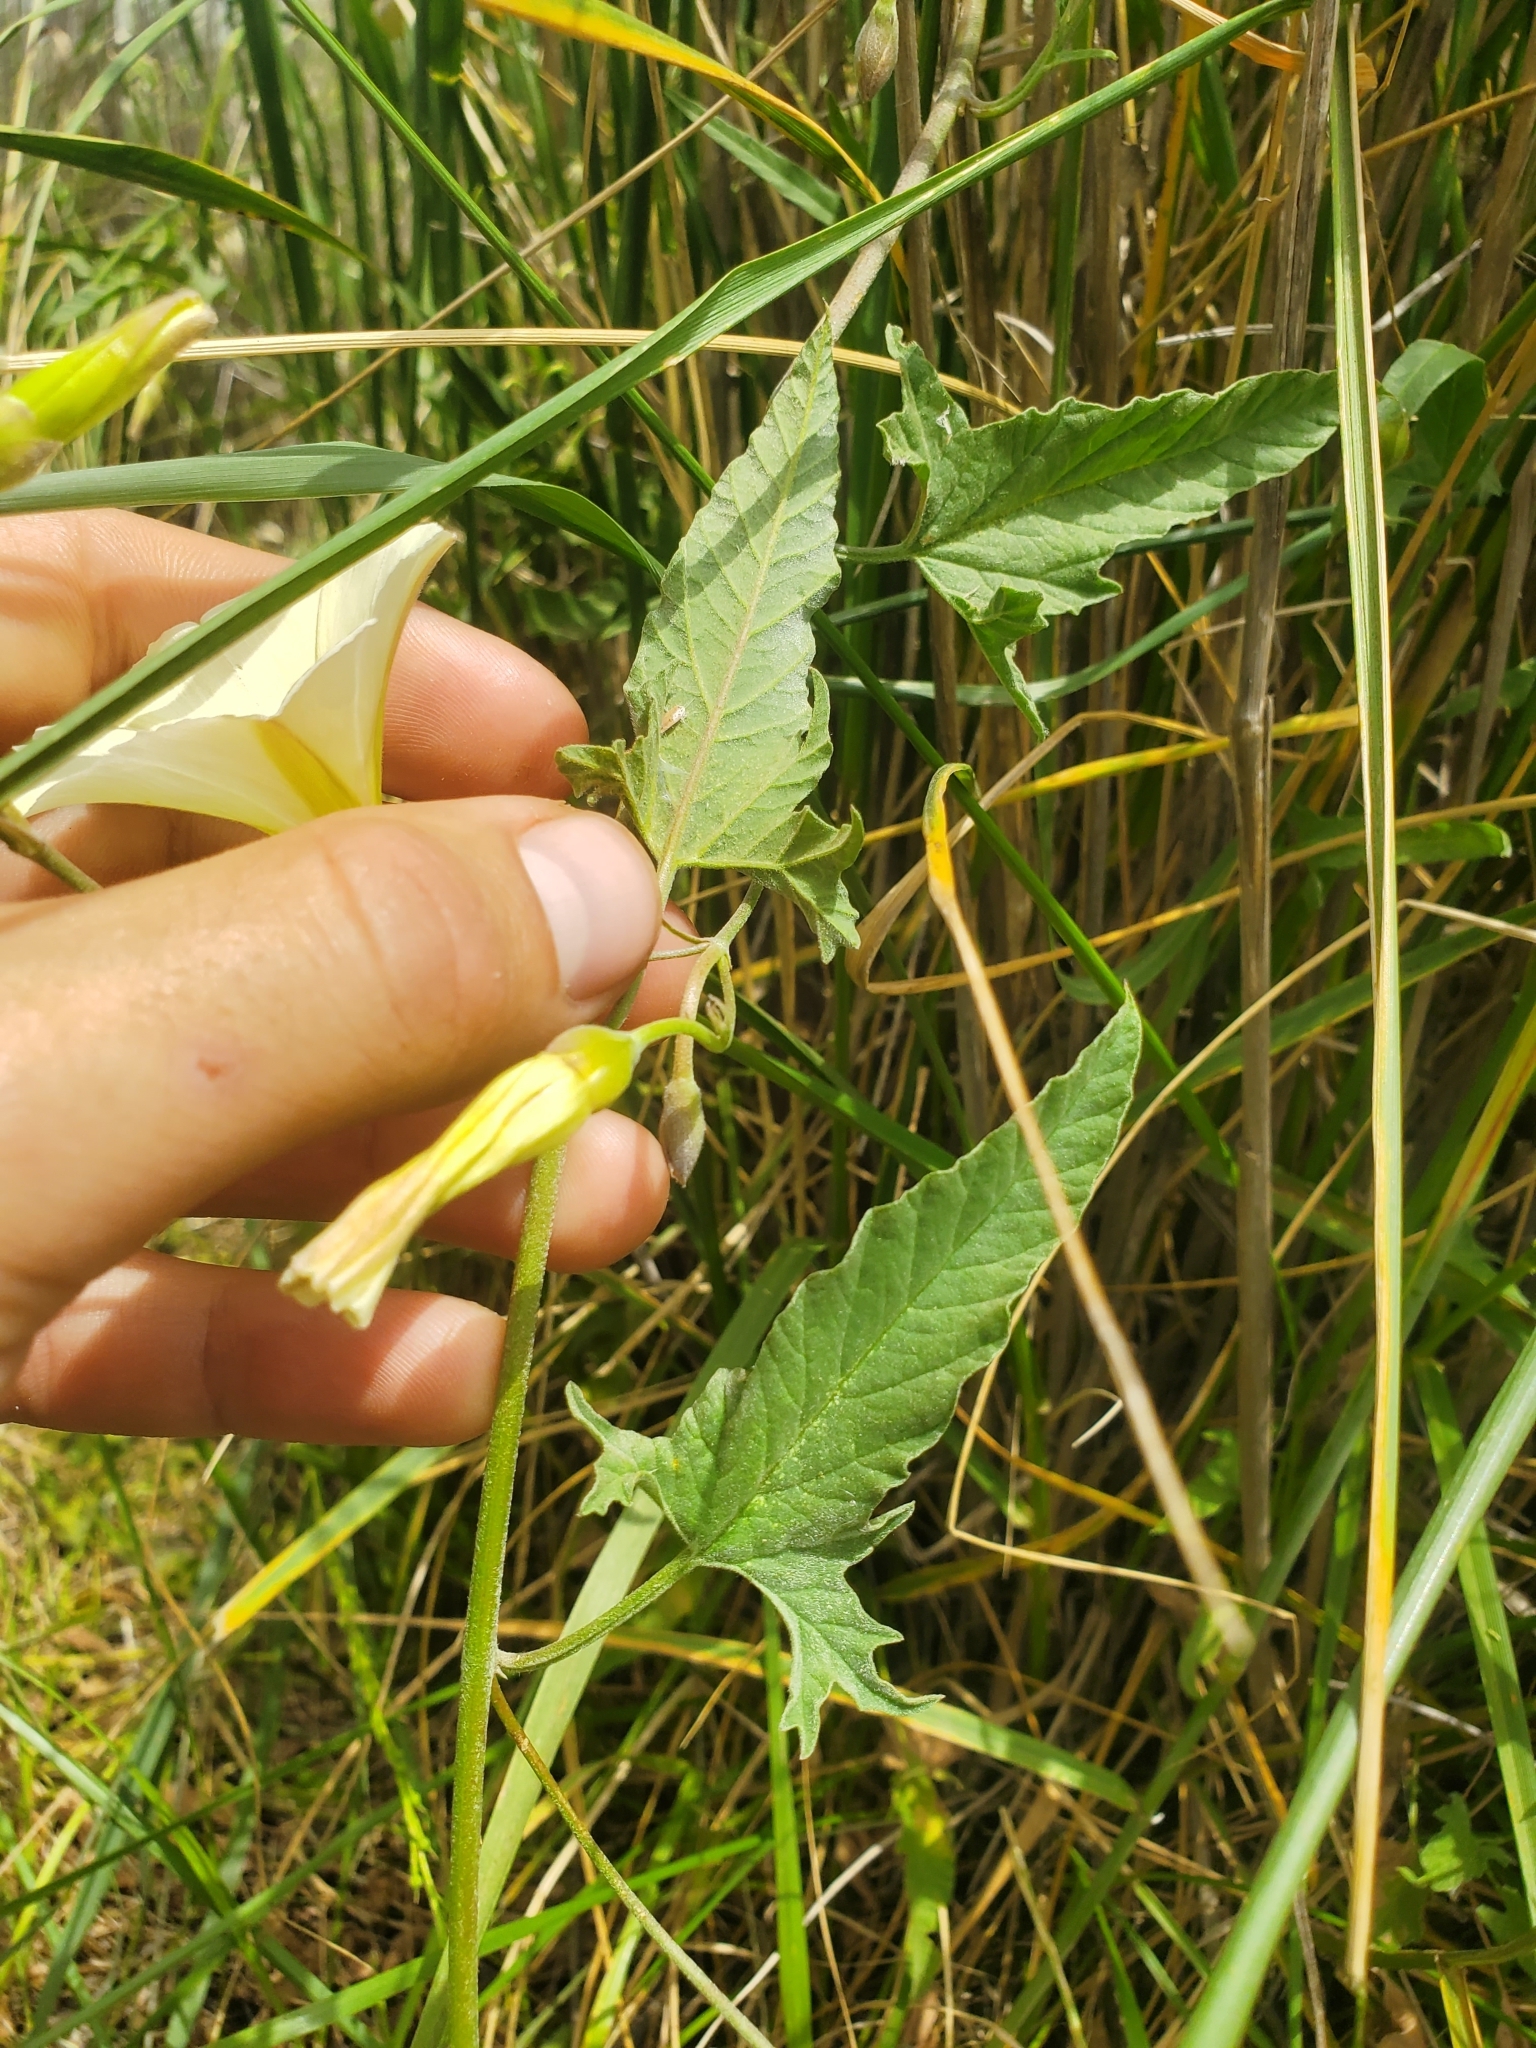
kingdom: Plantae
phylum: Tracheophyta
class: Magnoliopsida
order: Solanales
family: Convolvulaceae
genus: Convolvulus
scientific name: Convolvulus palaestinus
